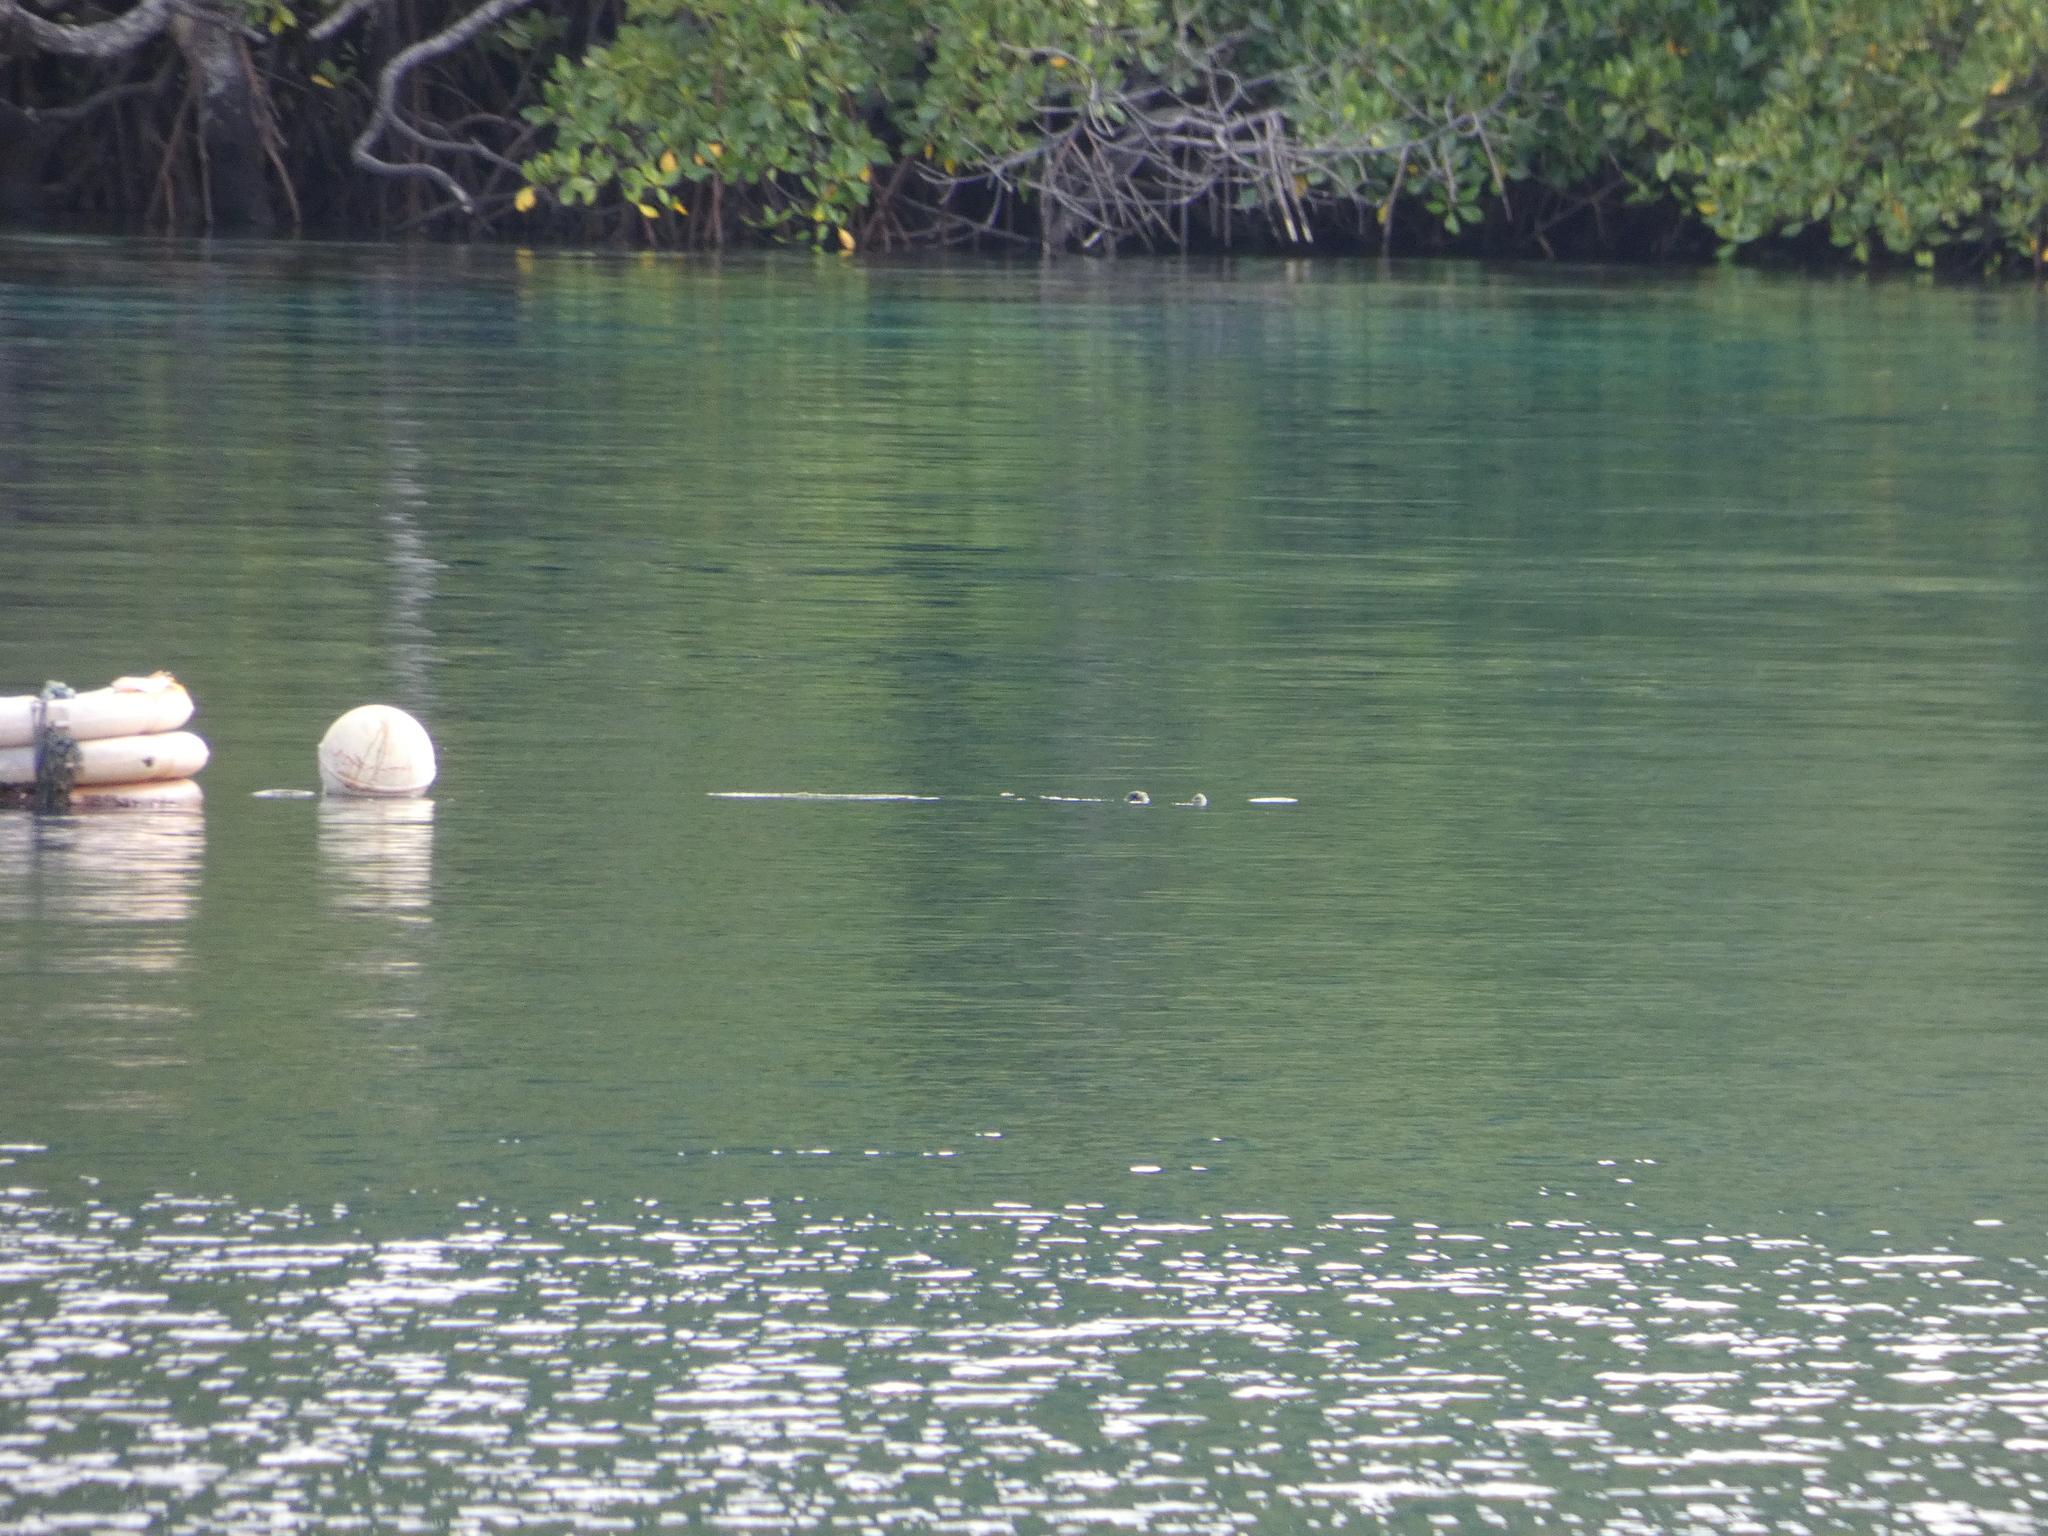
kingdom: Animalia
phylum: Chordata
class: Crocodylia
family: Crocodylidae
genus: Crocodylus
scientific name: Crocodylus porosus
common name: Saltwater crocodile
